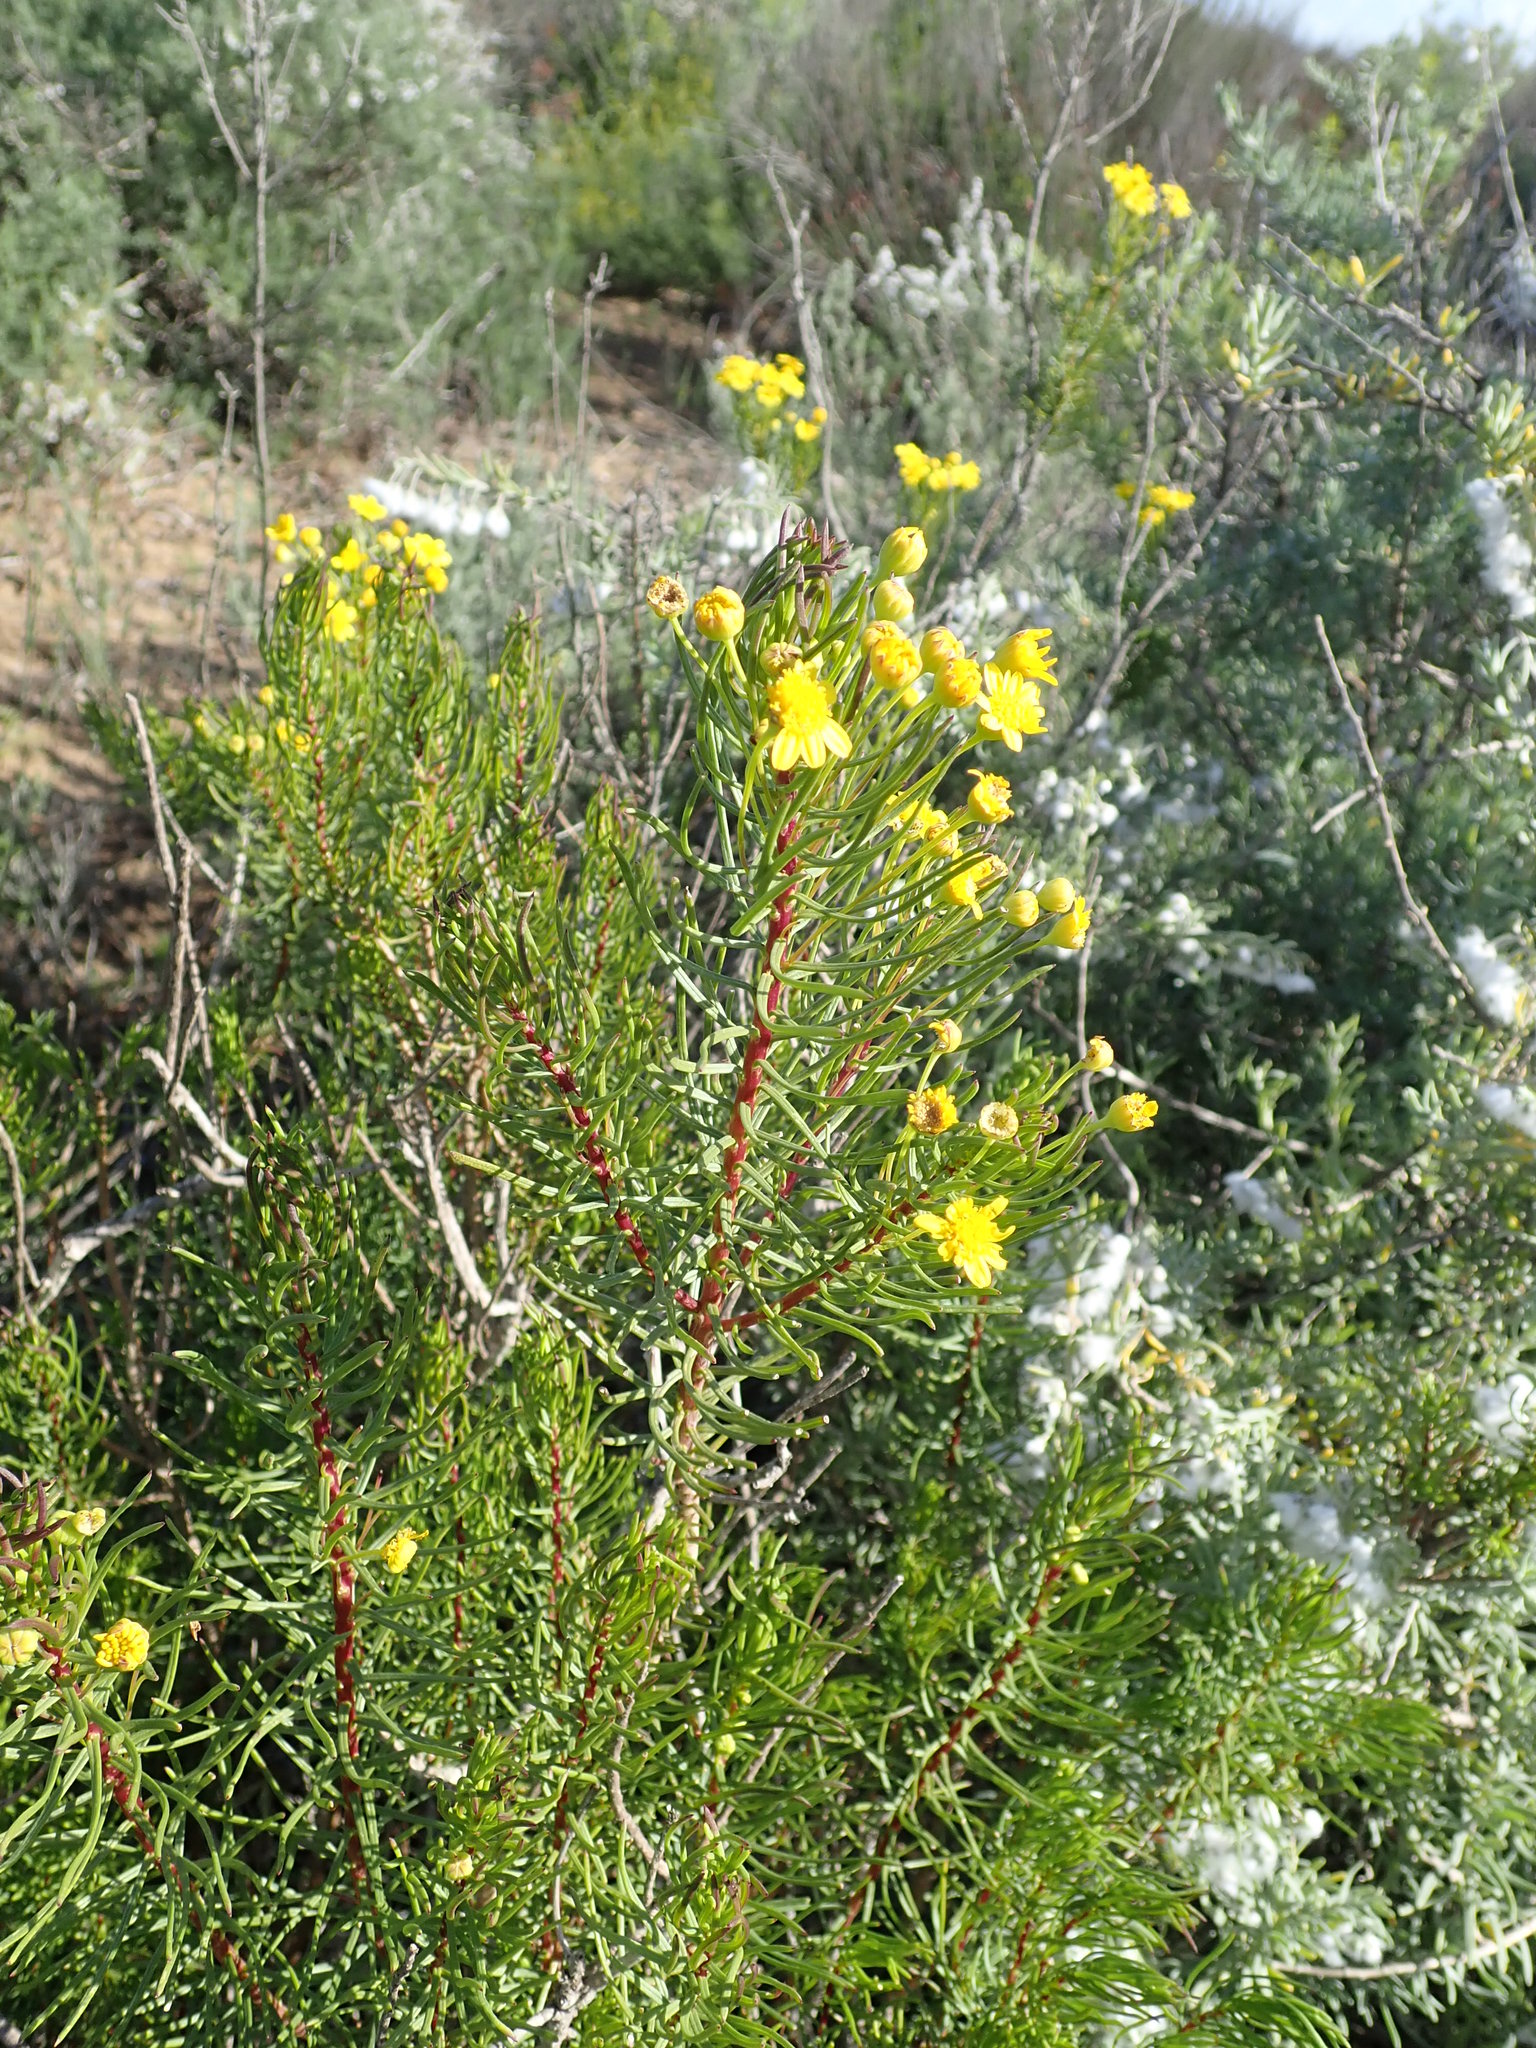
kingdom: Plantae
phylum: Tracheophyta
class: Magnoliopsida
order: Asterales
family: Asteraceae
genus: Euryops
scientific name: Euryops linifolius
